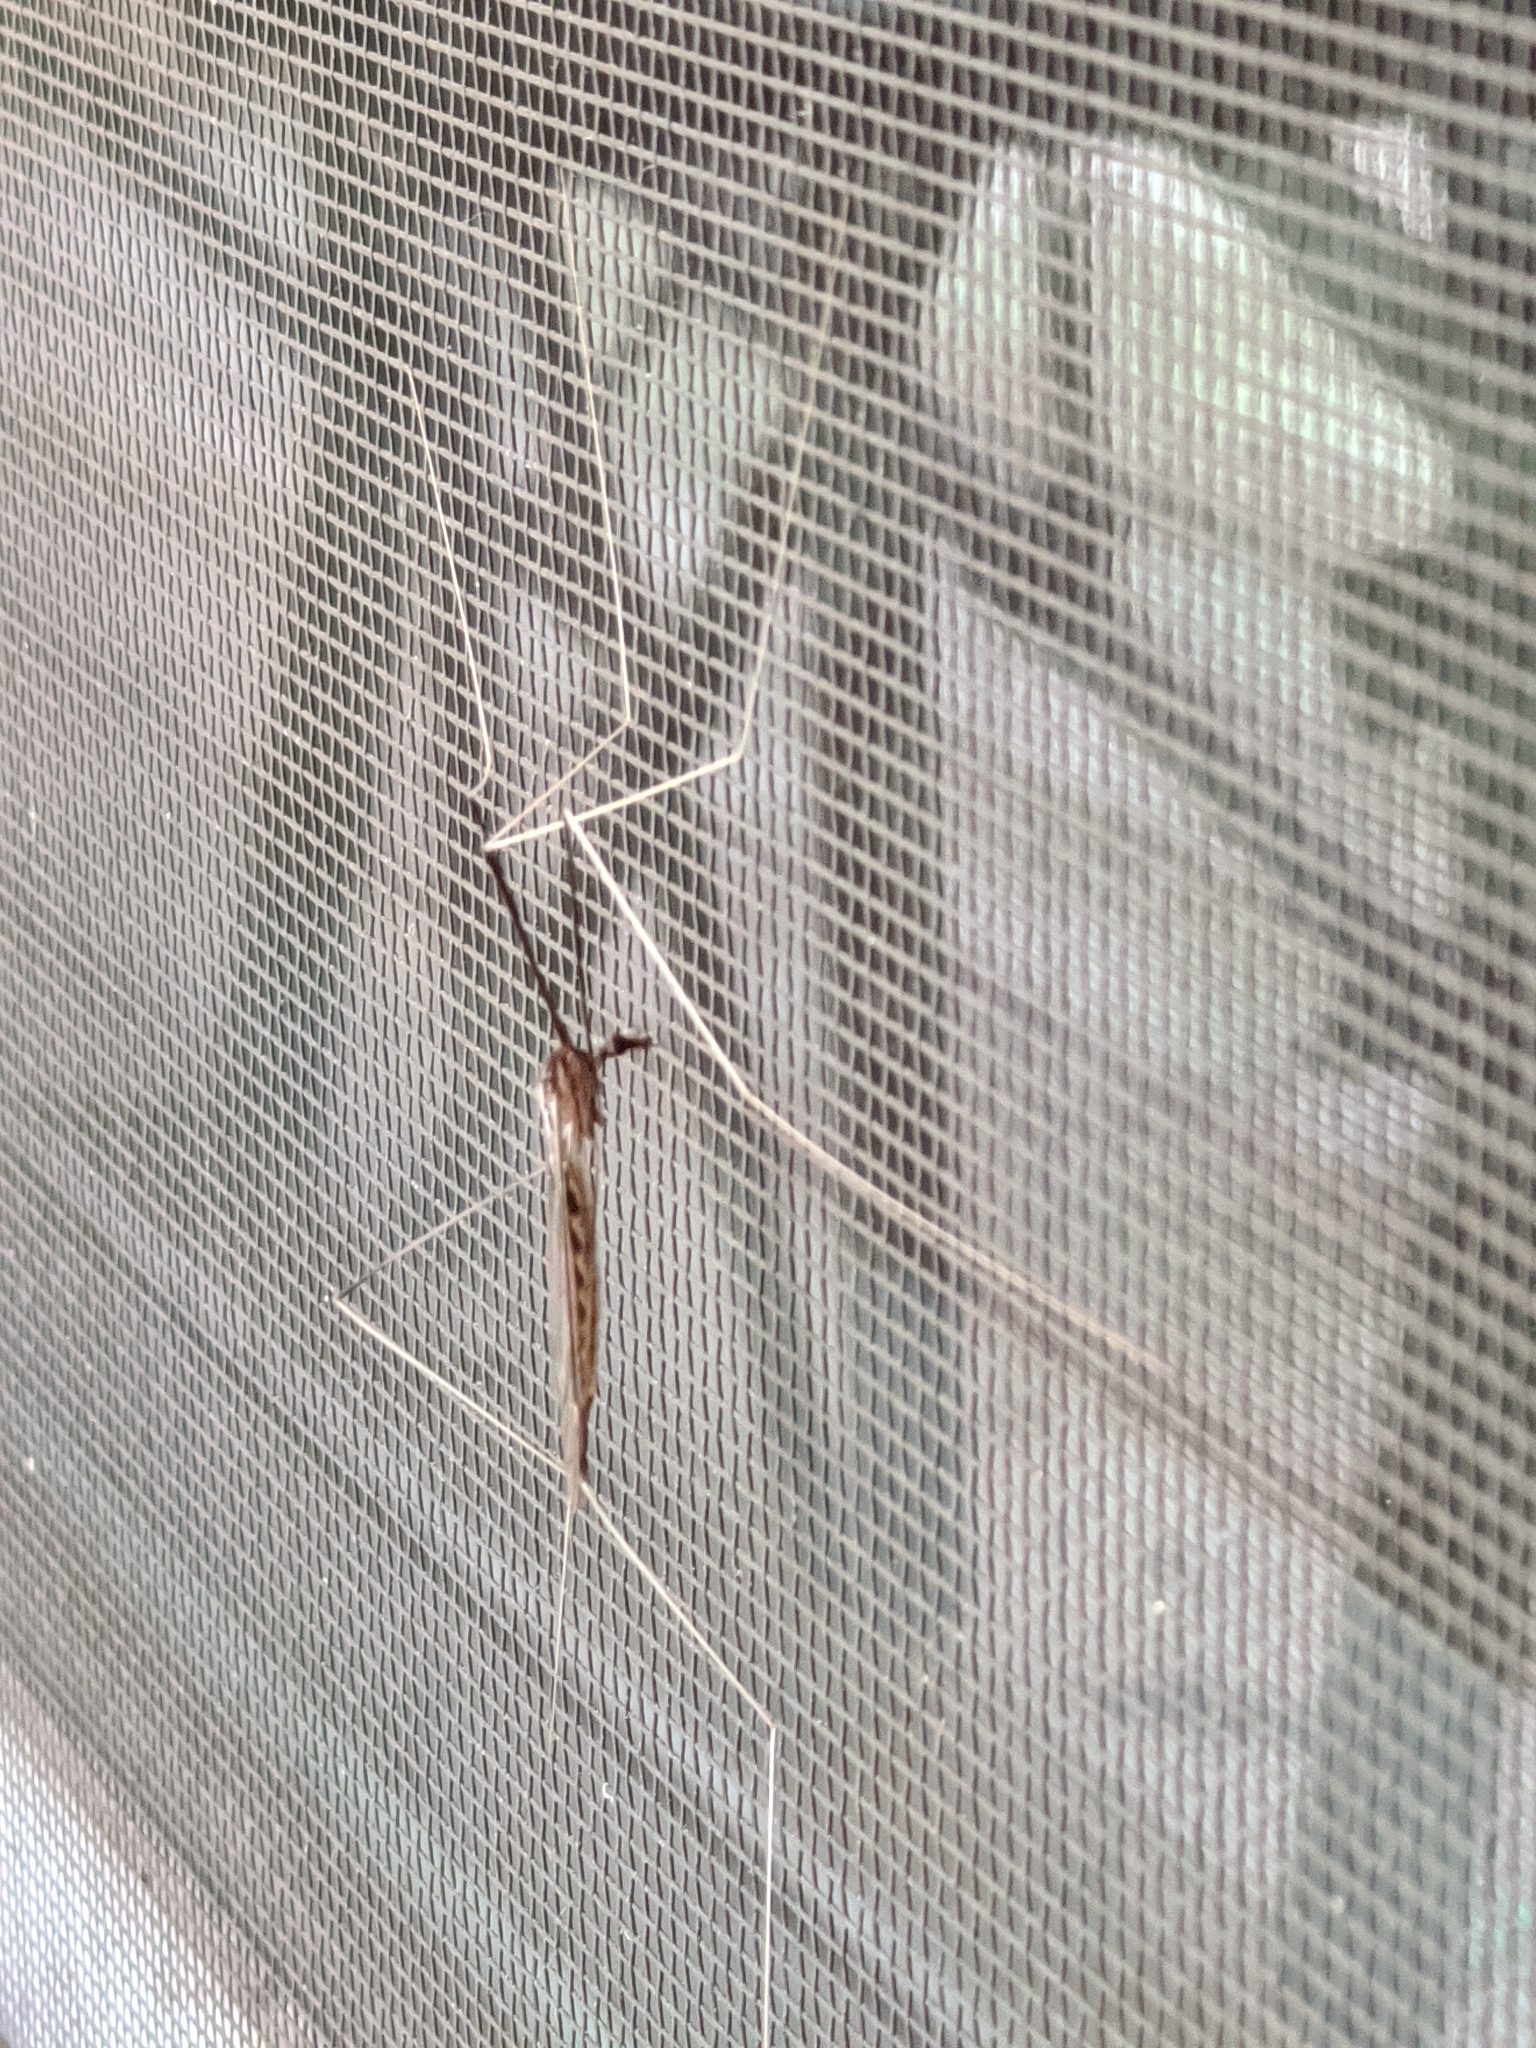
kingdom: Animalia
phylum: Arthropoda
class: Insecta
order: Diptera
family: Tipulidae
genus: Brachypremna
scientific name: Brachypremna dispellens
